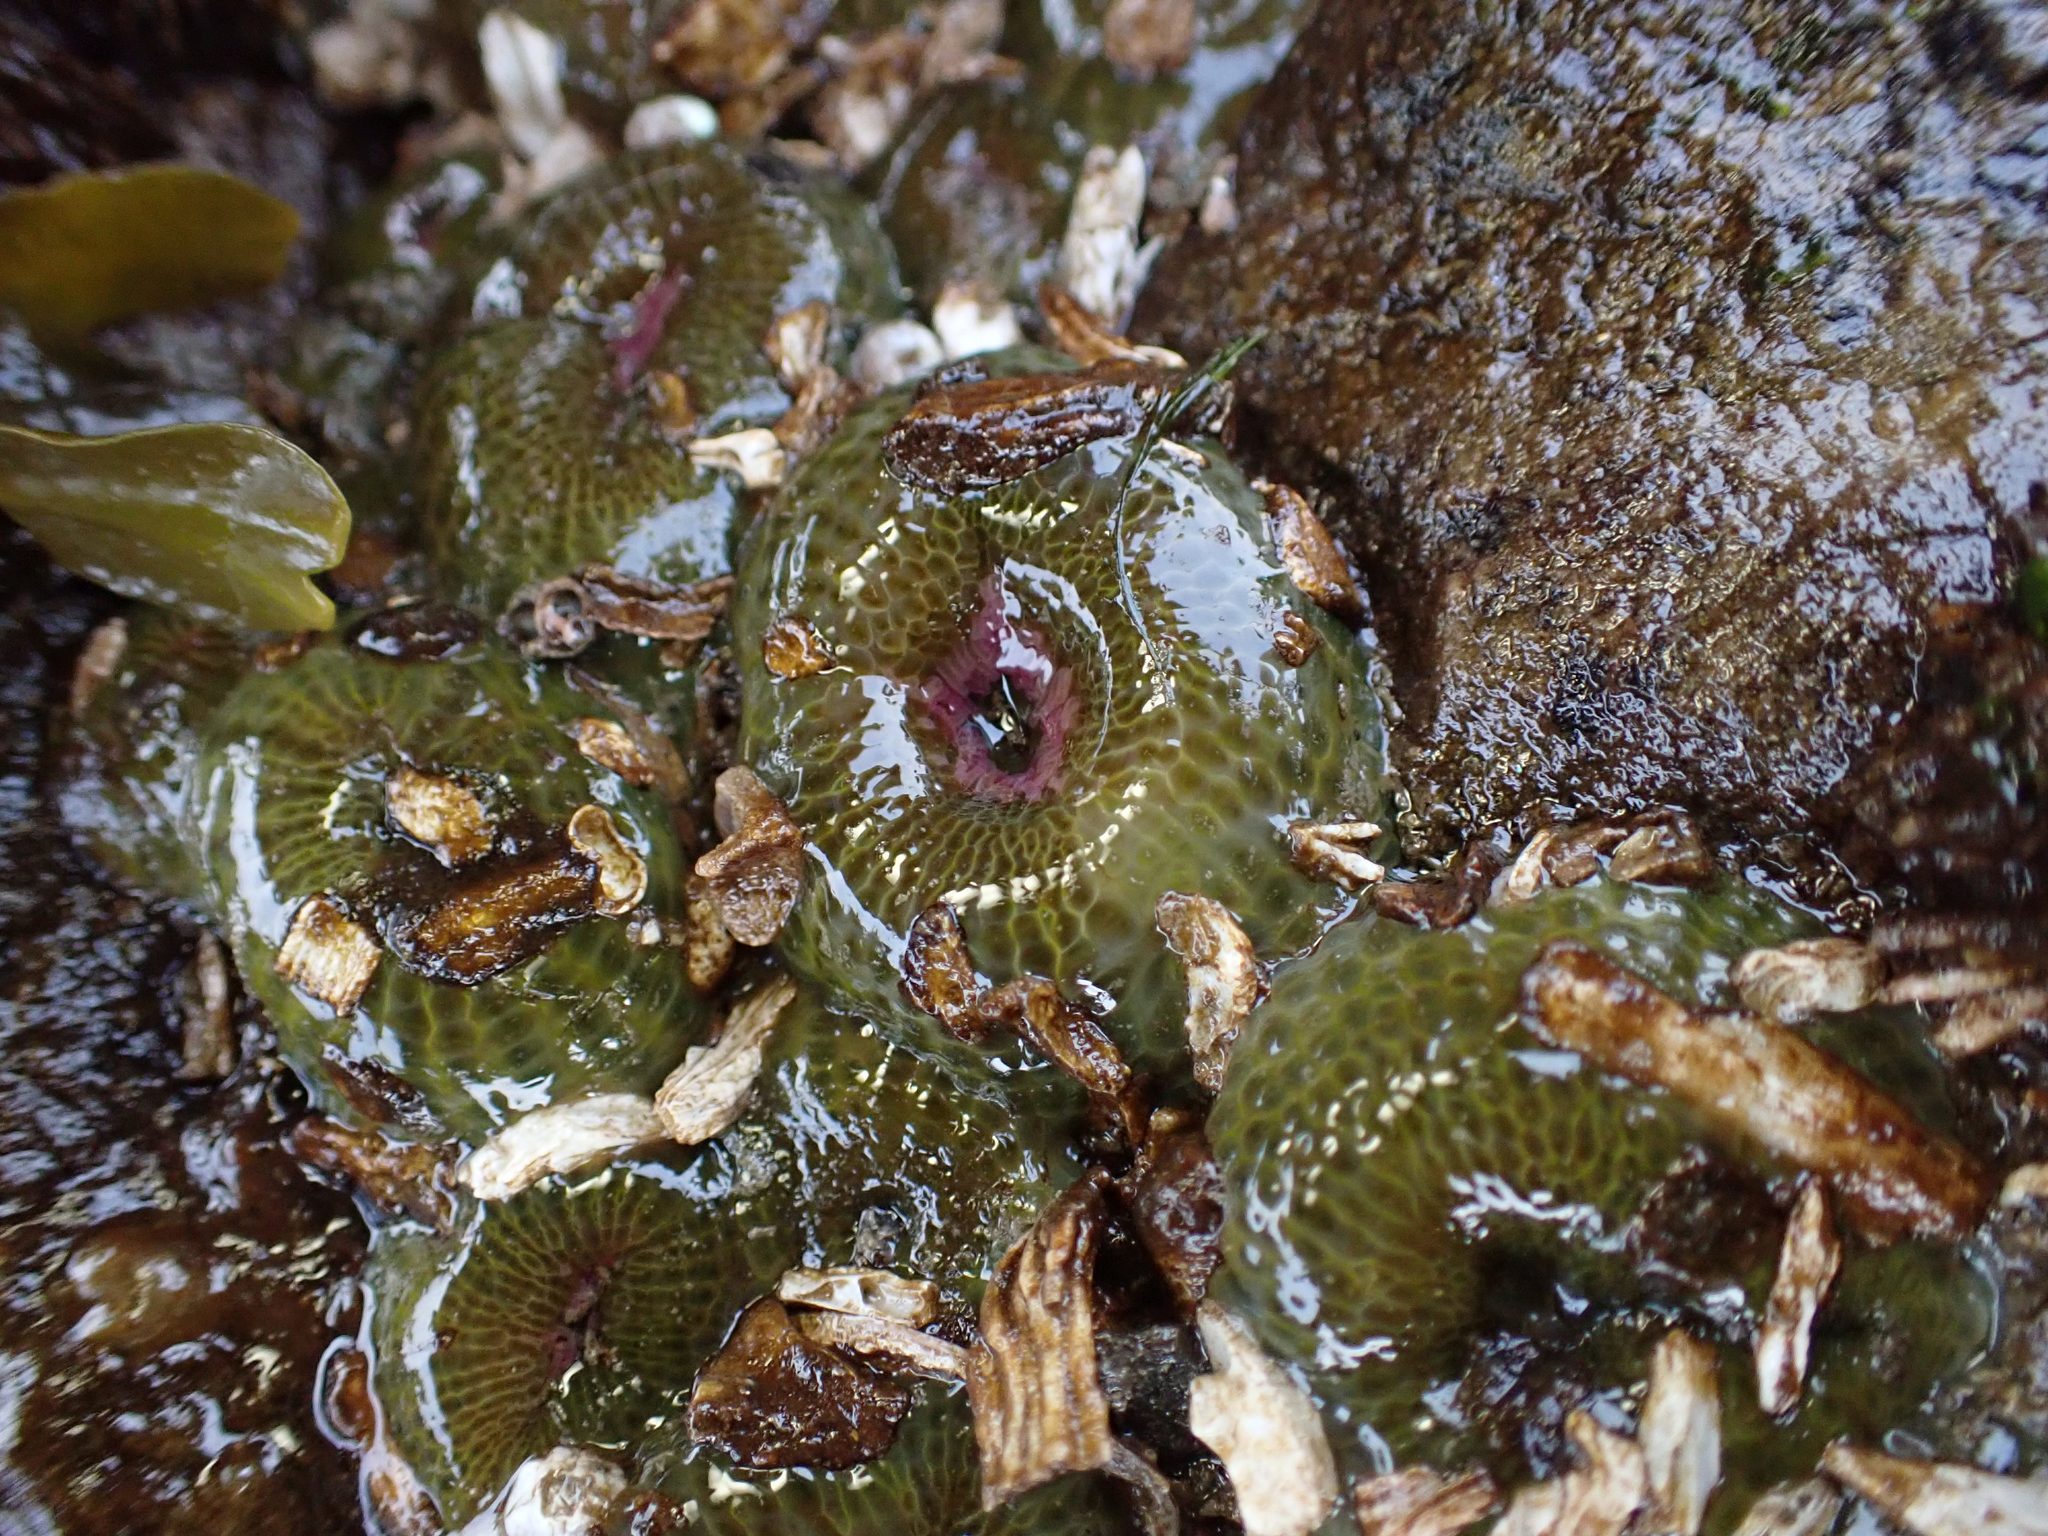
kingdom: Animalia
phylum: Cnidaria
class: Anthozoa
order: Actiniaria
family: Actiniidae
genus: Anthopleura
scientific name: Anthopleura elegantissima
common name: Clonal anemone
